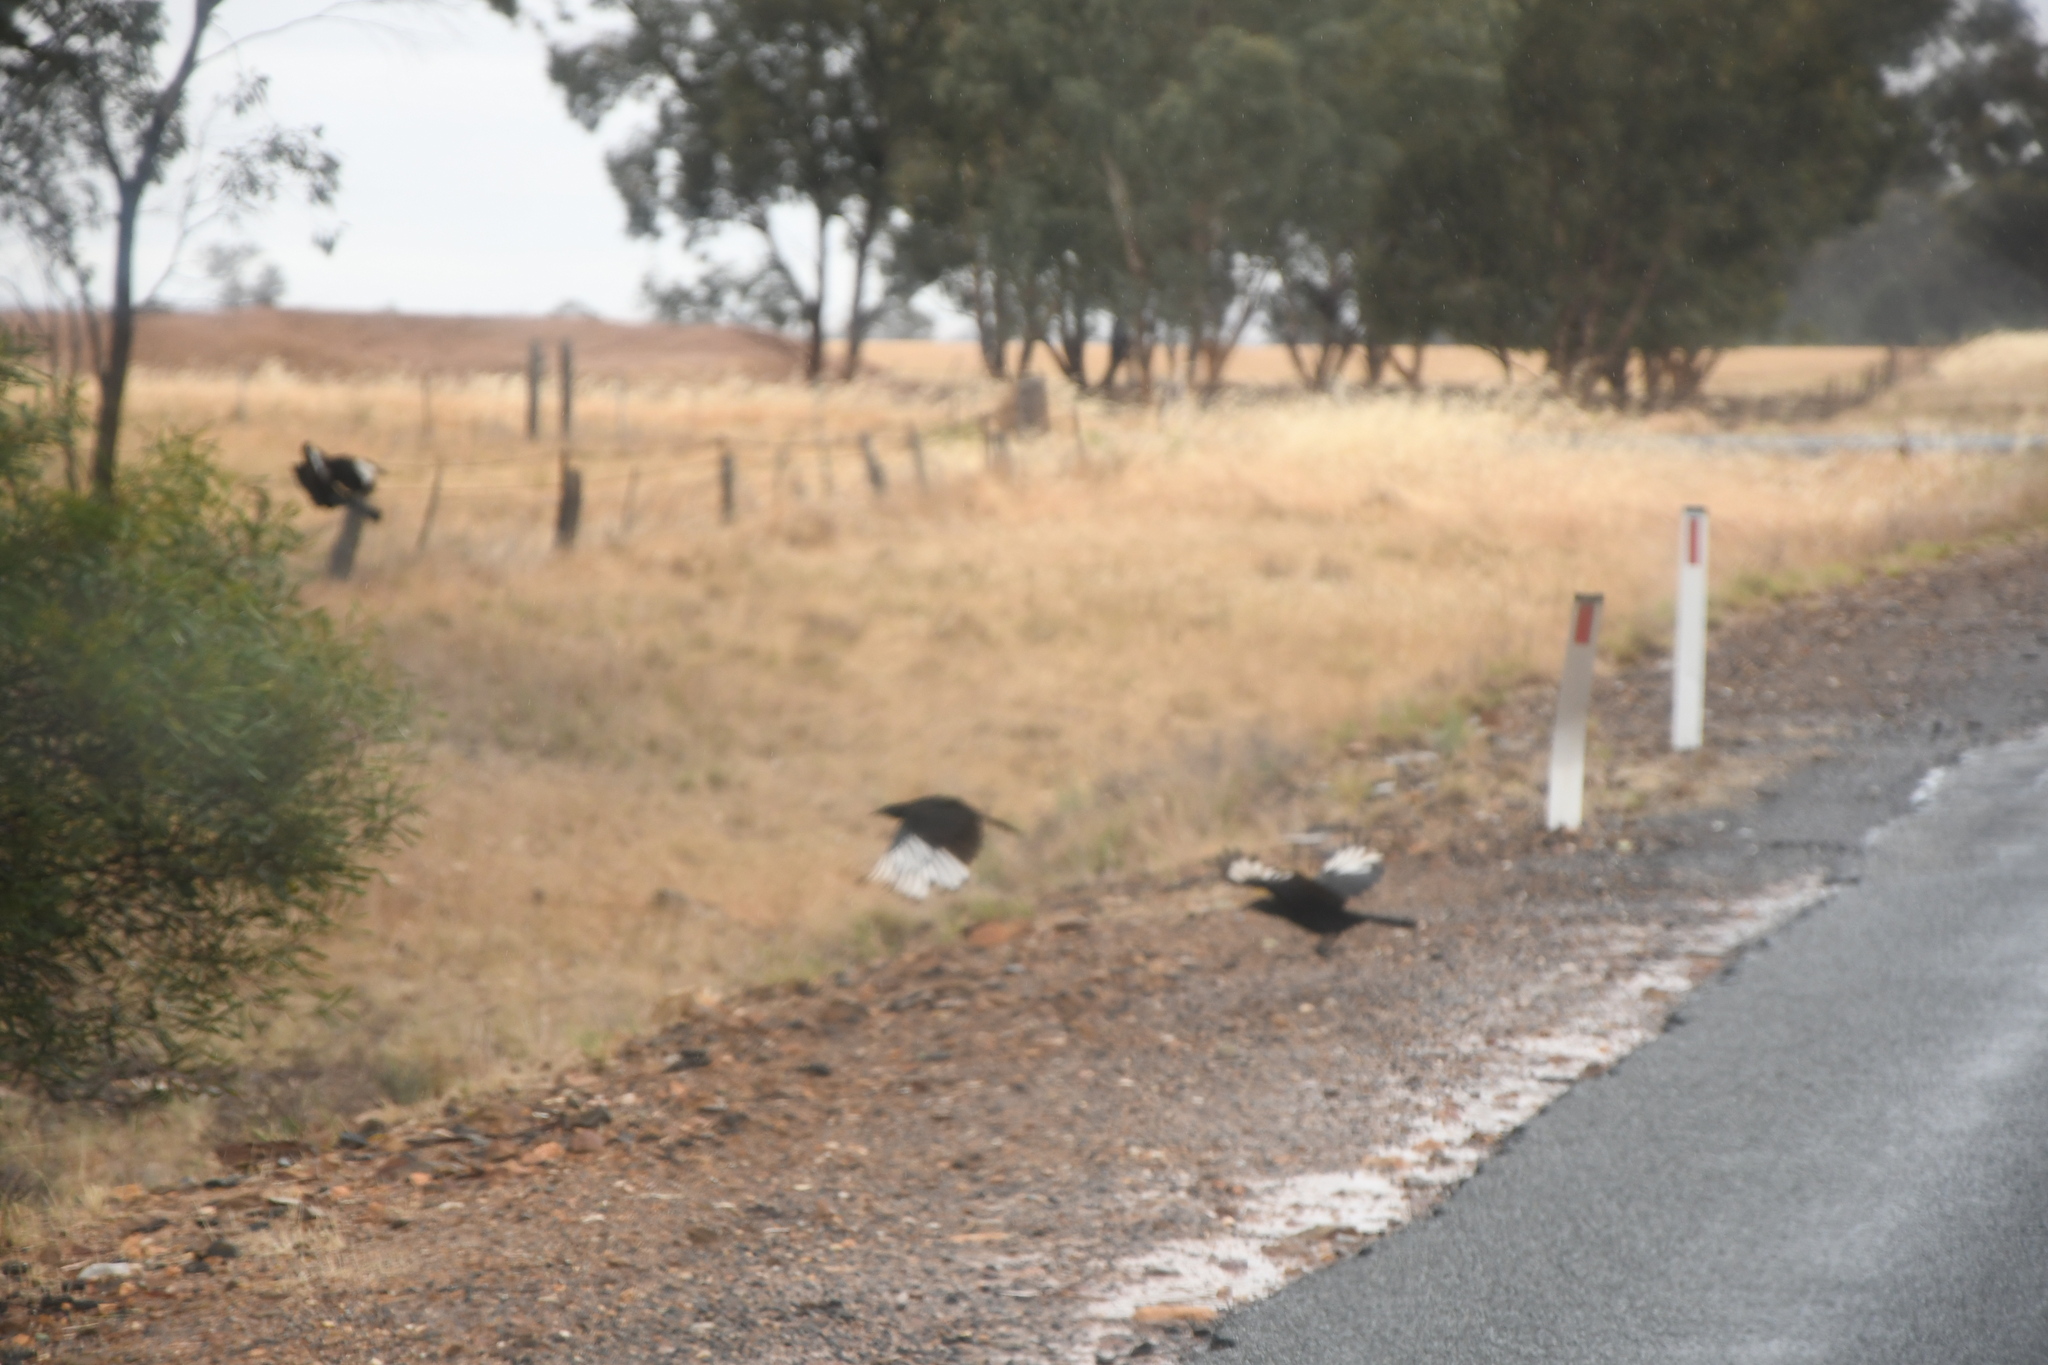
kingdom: Animalia
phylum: Chordata
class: Aves
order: Passeriformes
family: Corcoracidae
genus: Corcorax
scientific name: Corcorax melanoramphos
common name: White-winged chough
